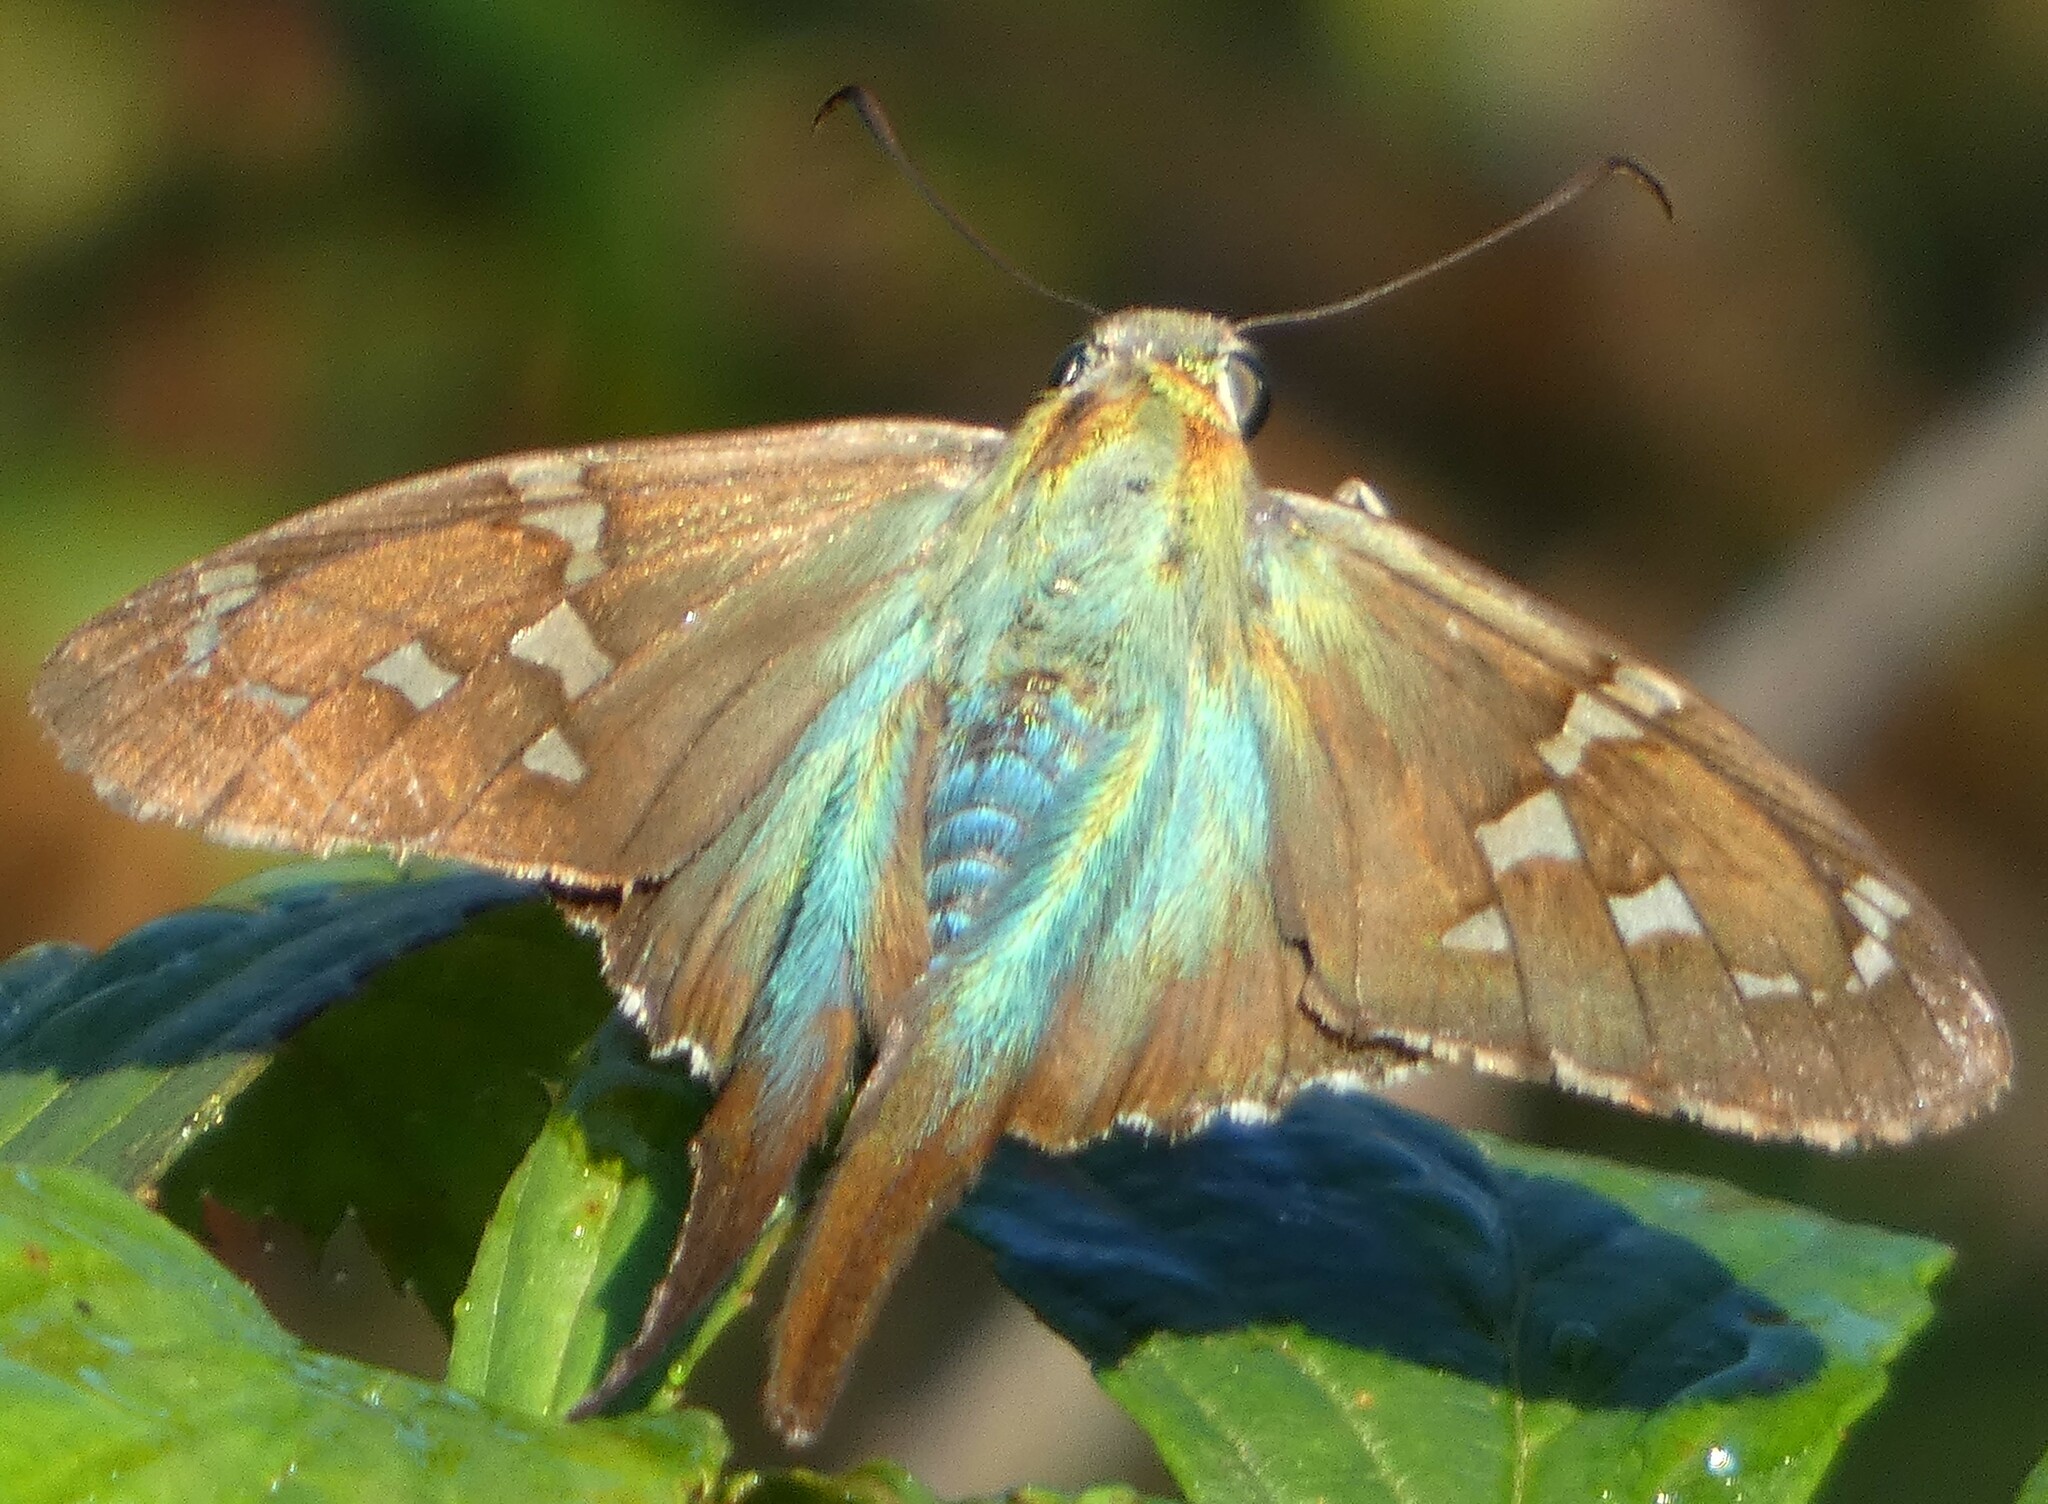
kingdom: Animalia
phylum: Arthropoda
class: Insecta
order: Lepidoptera
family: Hesperiidae
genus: Urbanus
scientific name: Urbanus proteus
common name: Long-tailed skipper
